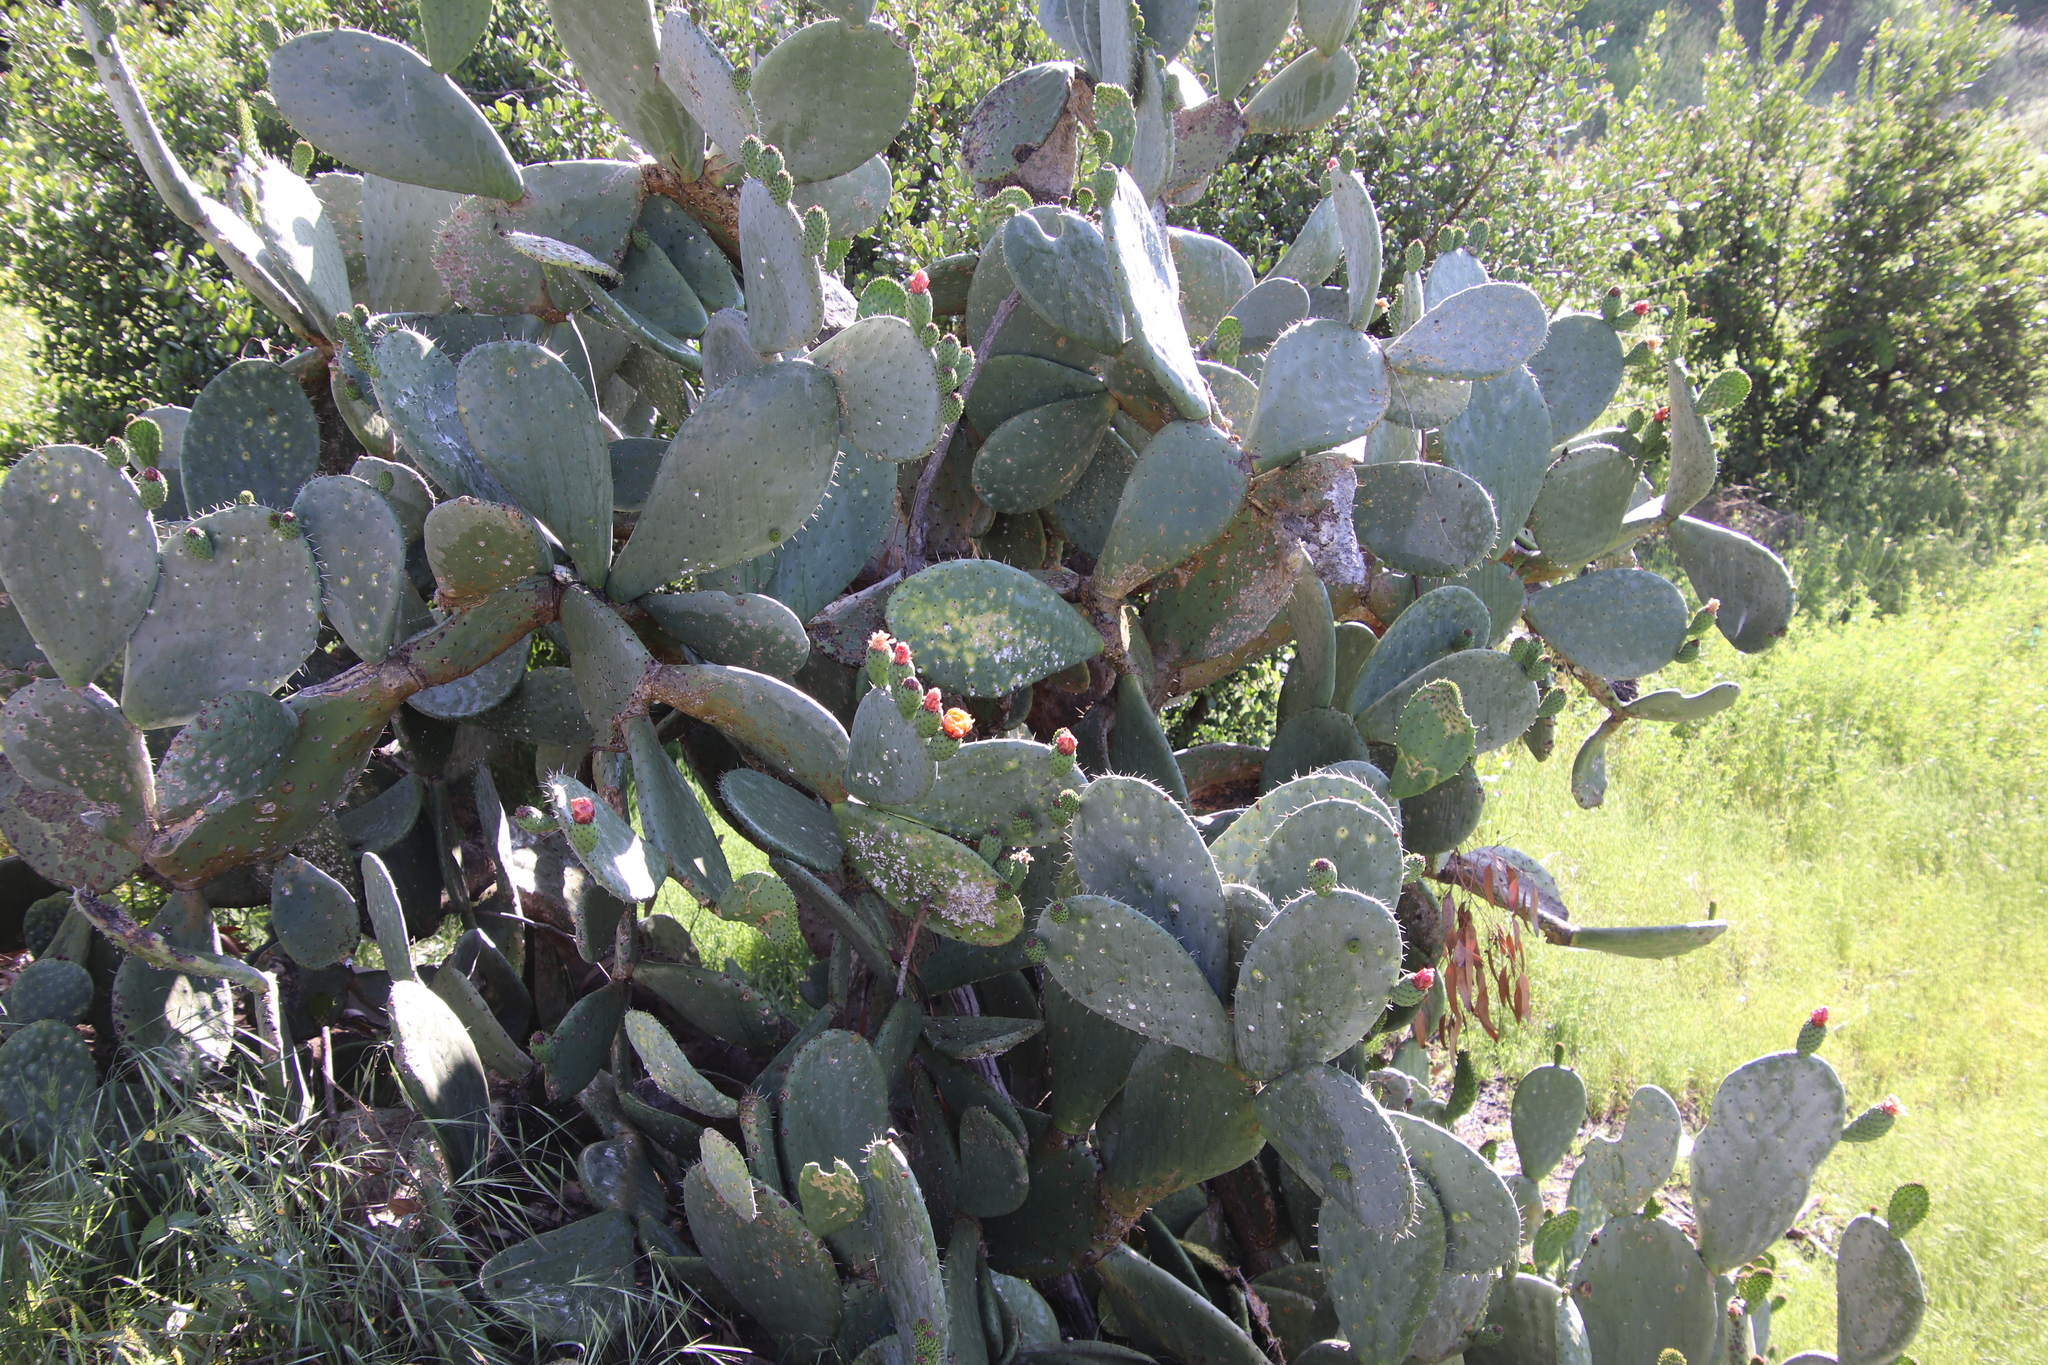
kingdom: Plantae
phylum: Tracheophyta
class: Magnoliopsida
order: Caryophyllales
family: Cactaceae
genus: Opuntia
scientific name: Opuntia ficus-indica
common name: Barbary fig
